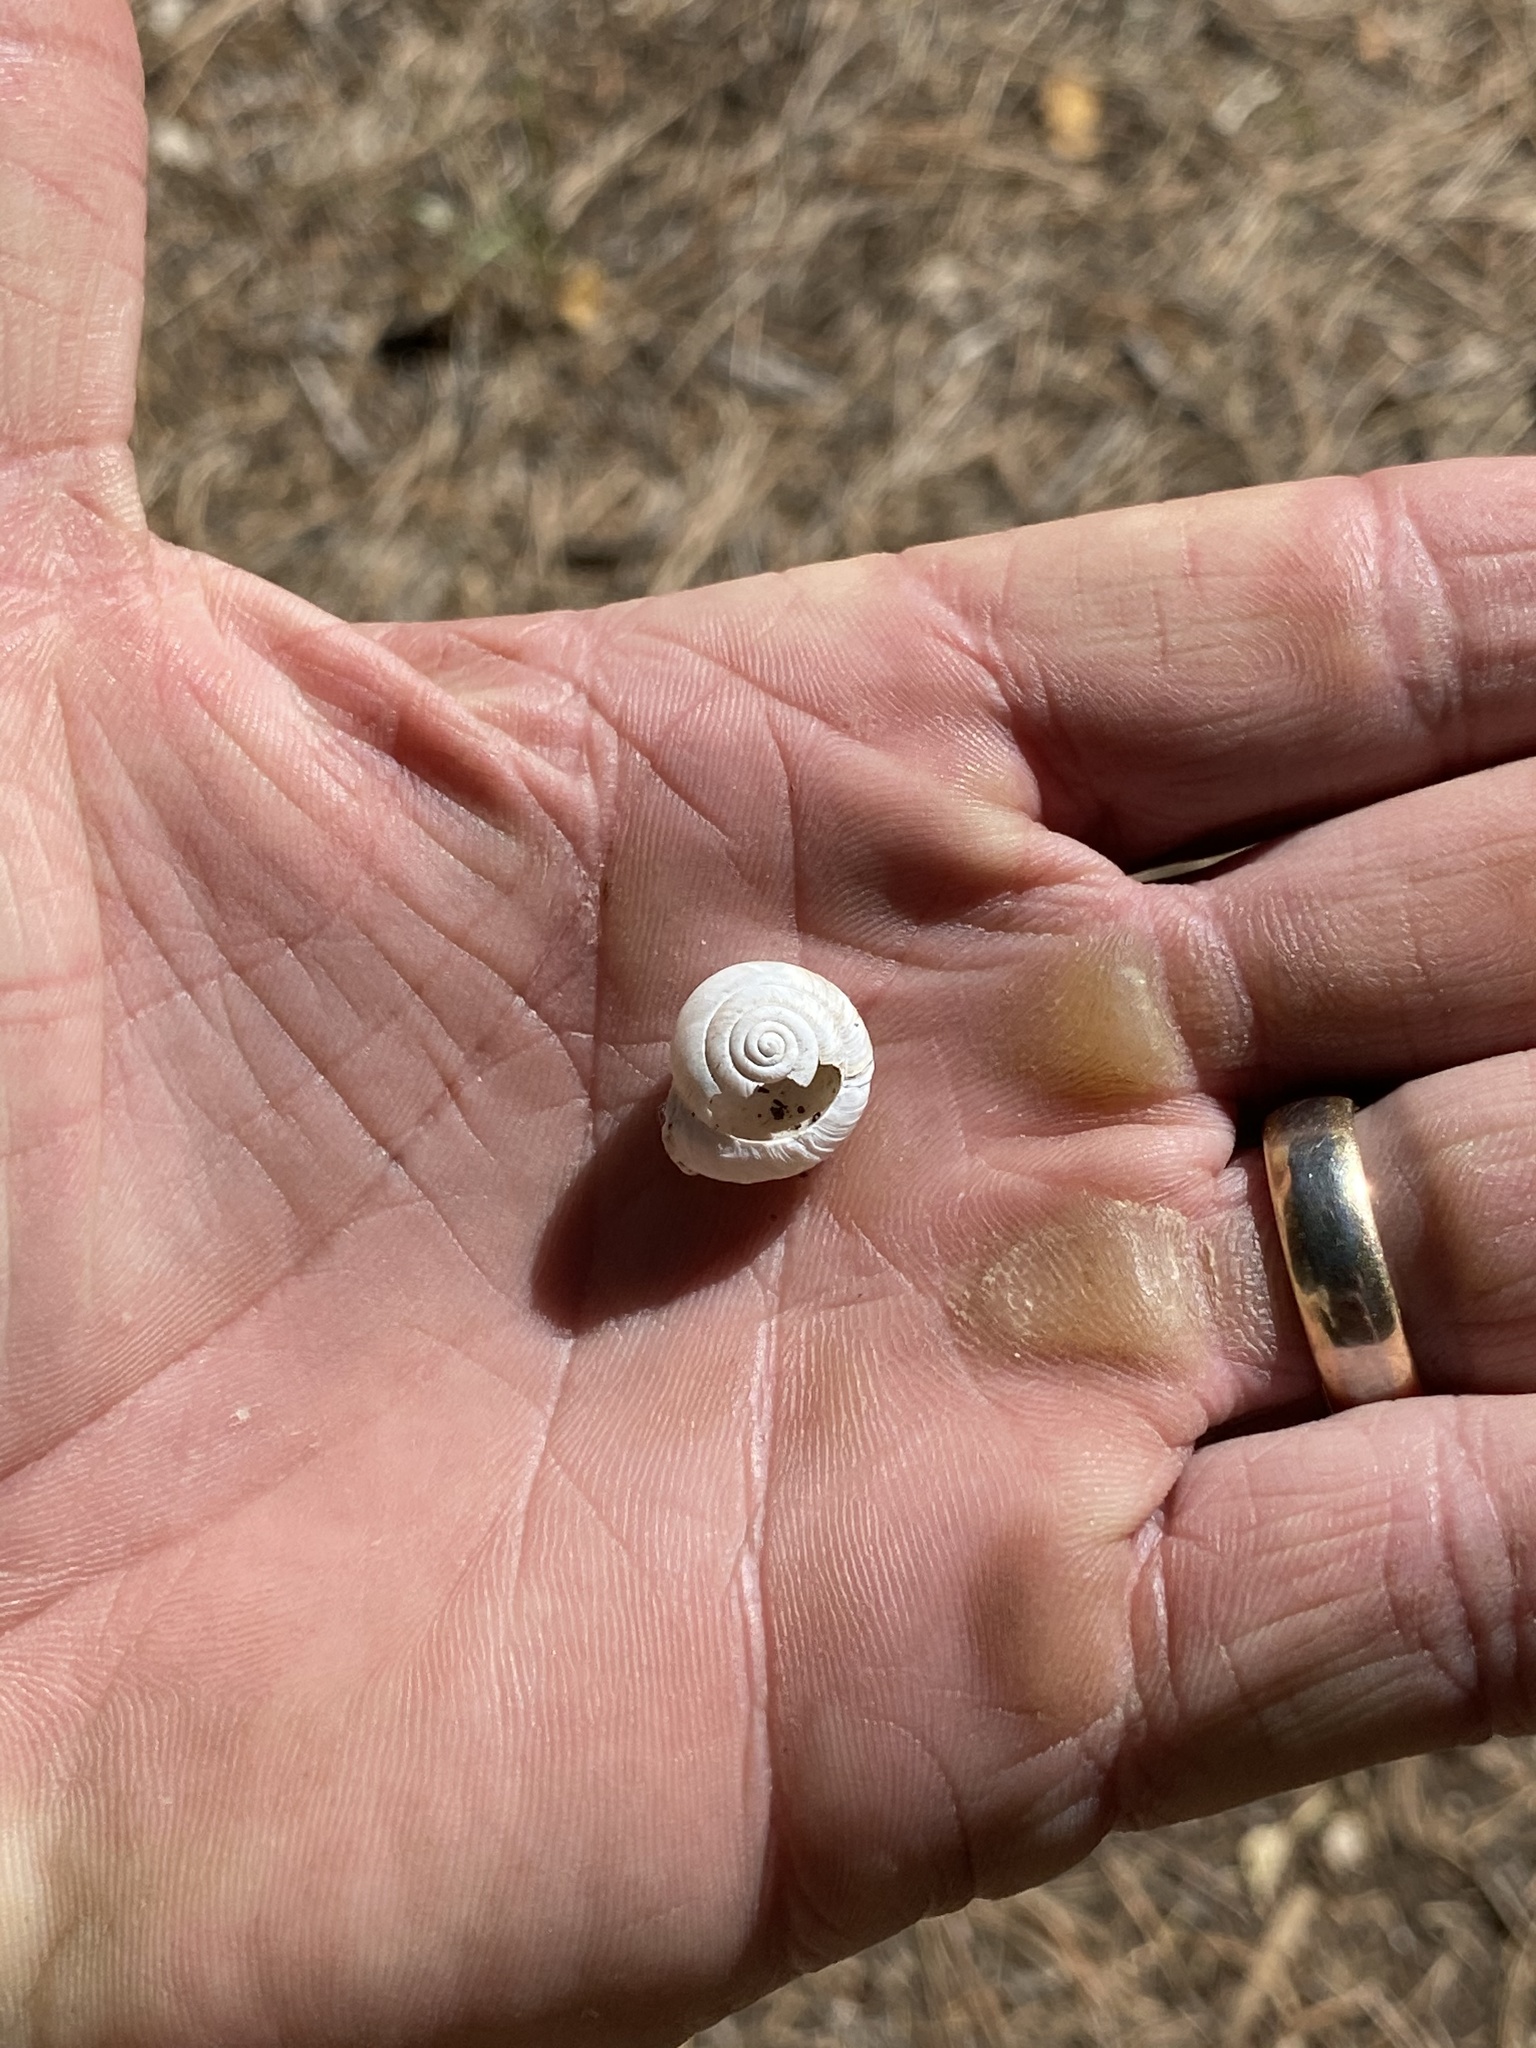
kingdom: Animalia
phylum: Mollusca
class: Gastropoda
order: Stylommatophora
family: Polygyridae
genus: Ashmunella
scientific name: Ashmunella rhyssa
